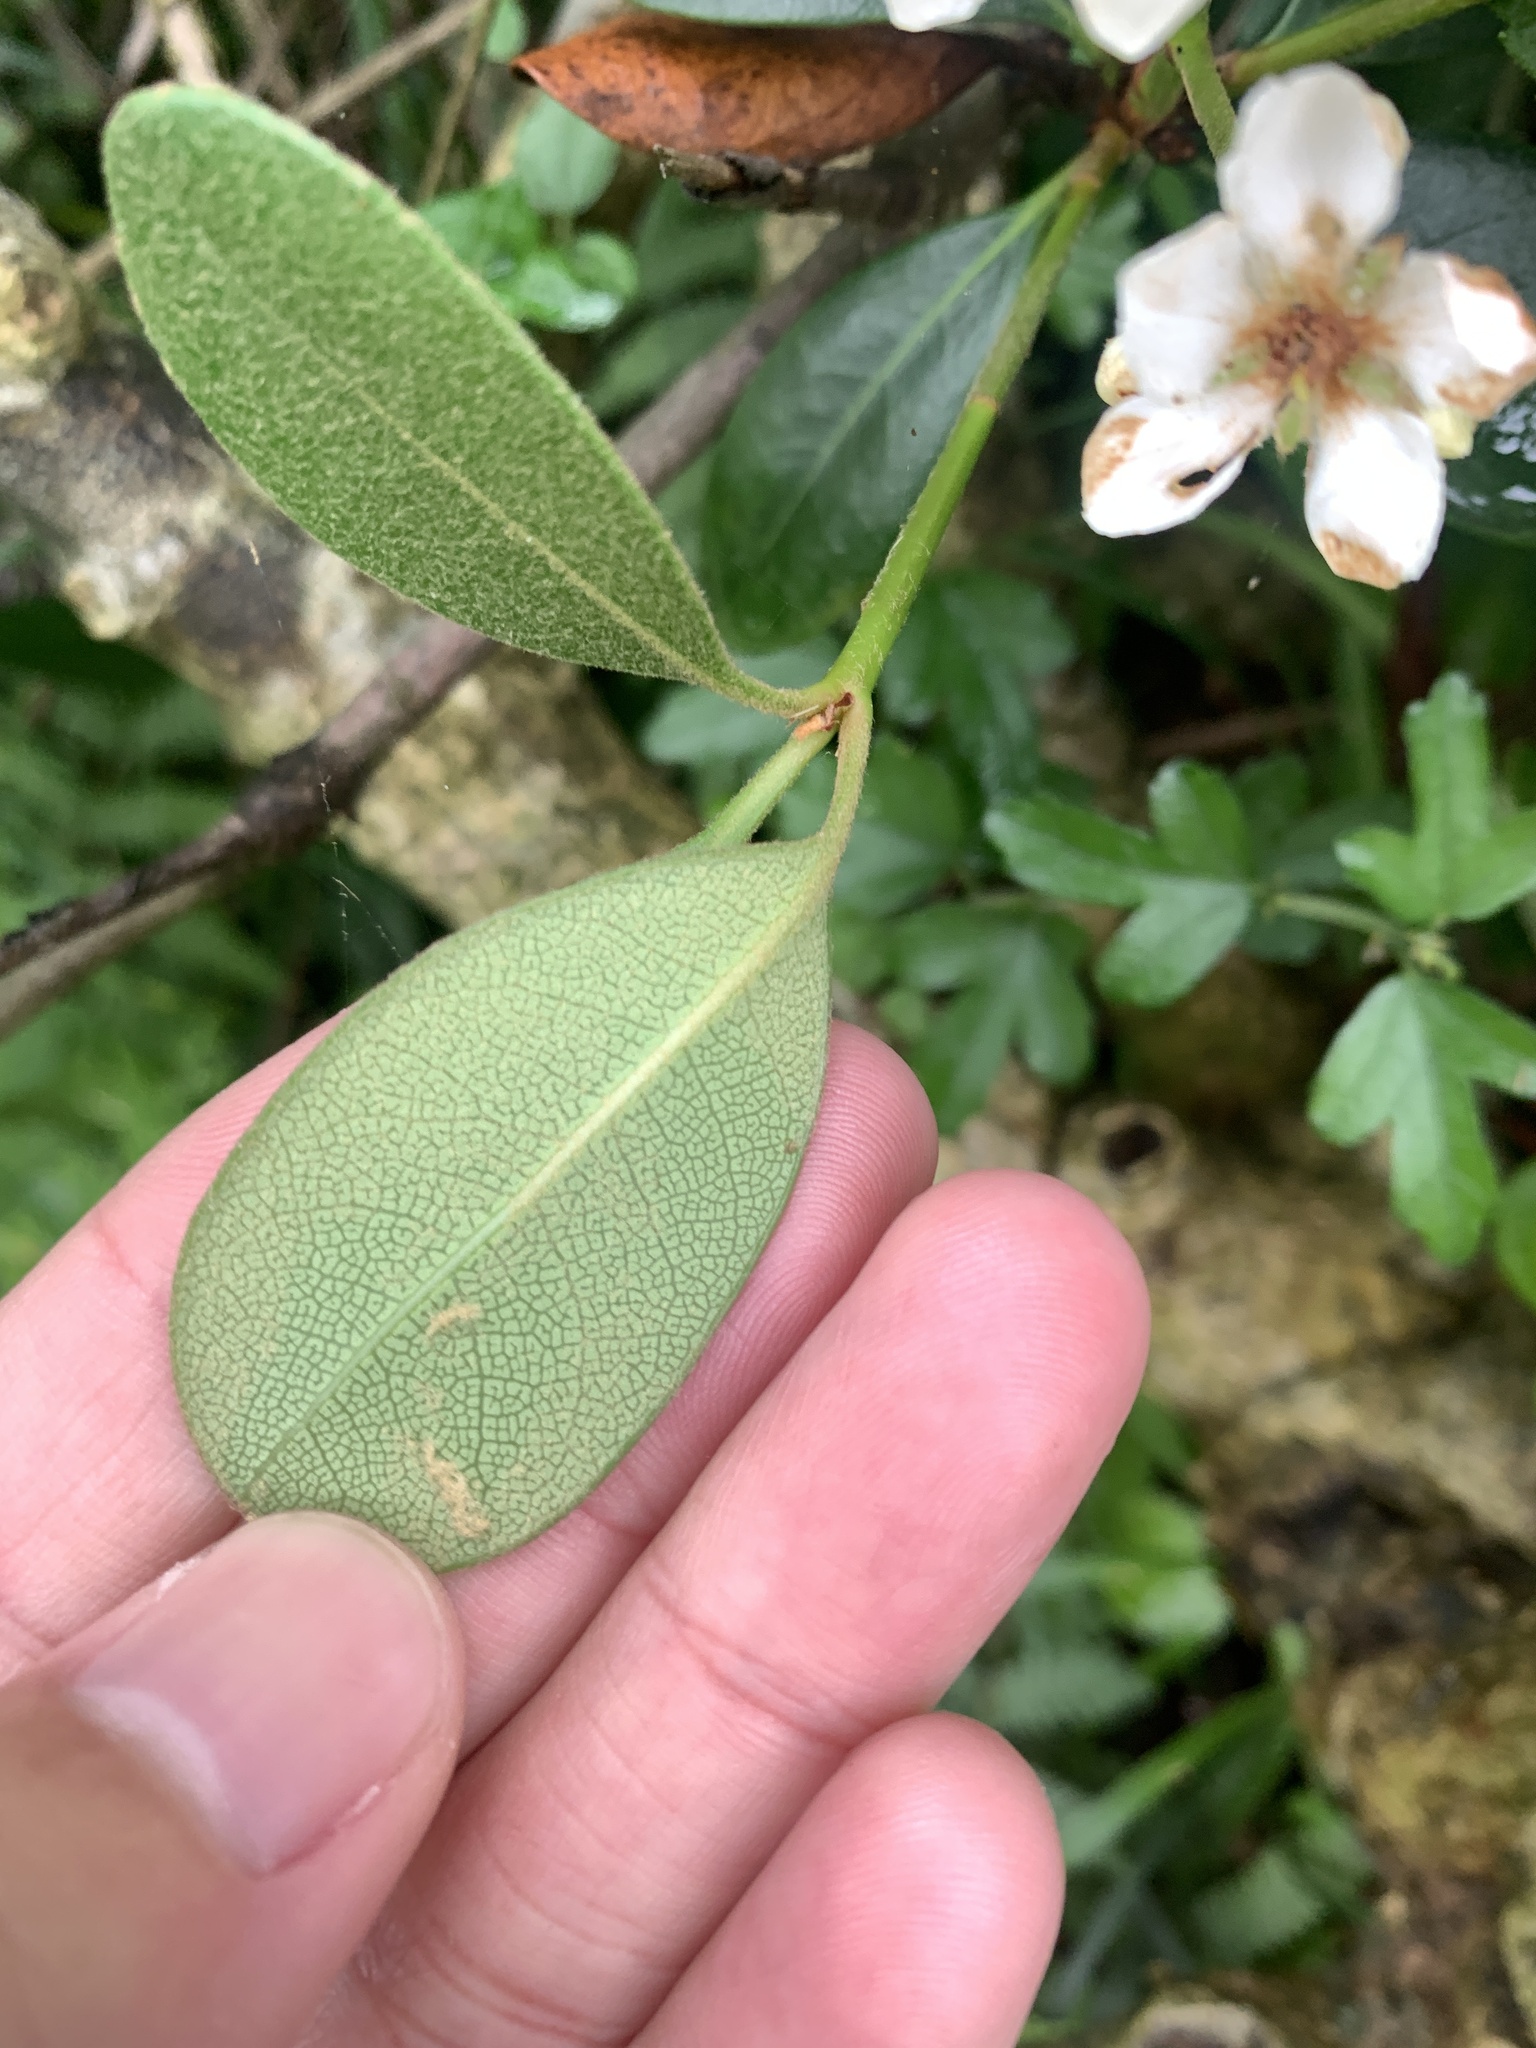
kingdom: Plantae
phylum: Tracheophyta
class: Magnoliopsida
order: Rosales
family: Rosaceae
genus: Rhaphiolepis
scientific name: Rhaphiolepis umbellata
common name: Yedda-hawthorn
